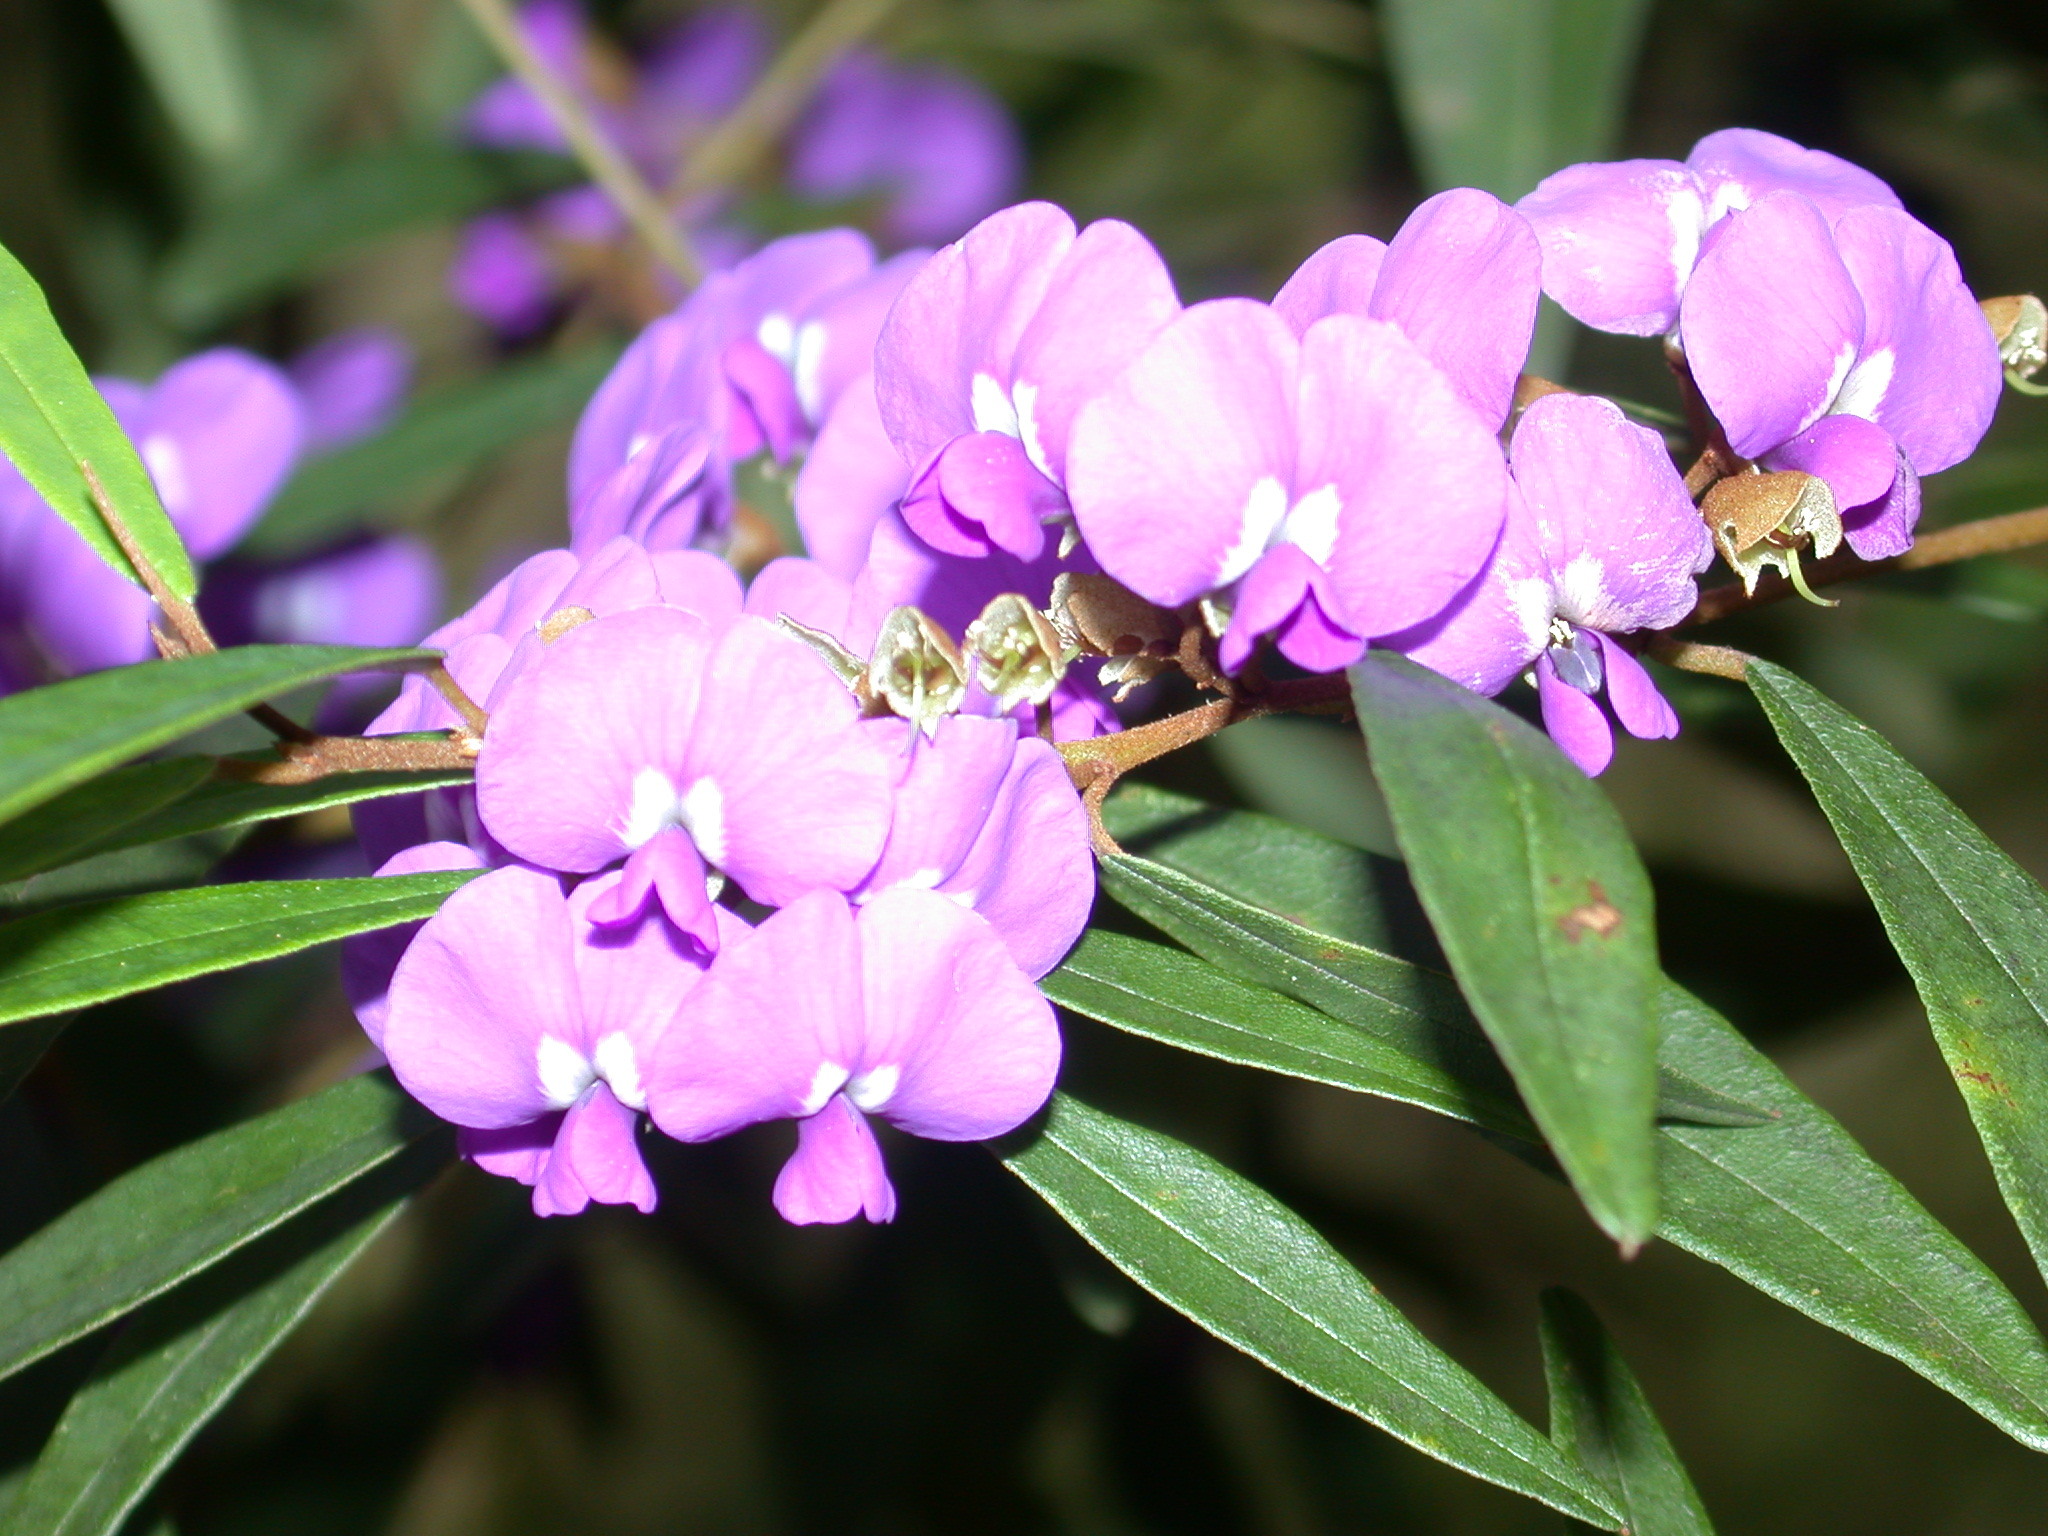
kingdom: Plantae
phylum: Tracheophyta
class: Magnoliopsida
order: Fabales
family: Fabaceae
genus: Hovea
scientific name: Hovea elliptica
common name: Tree hovea
